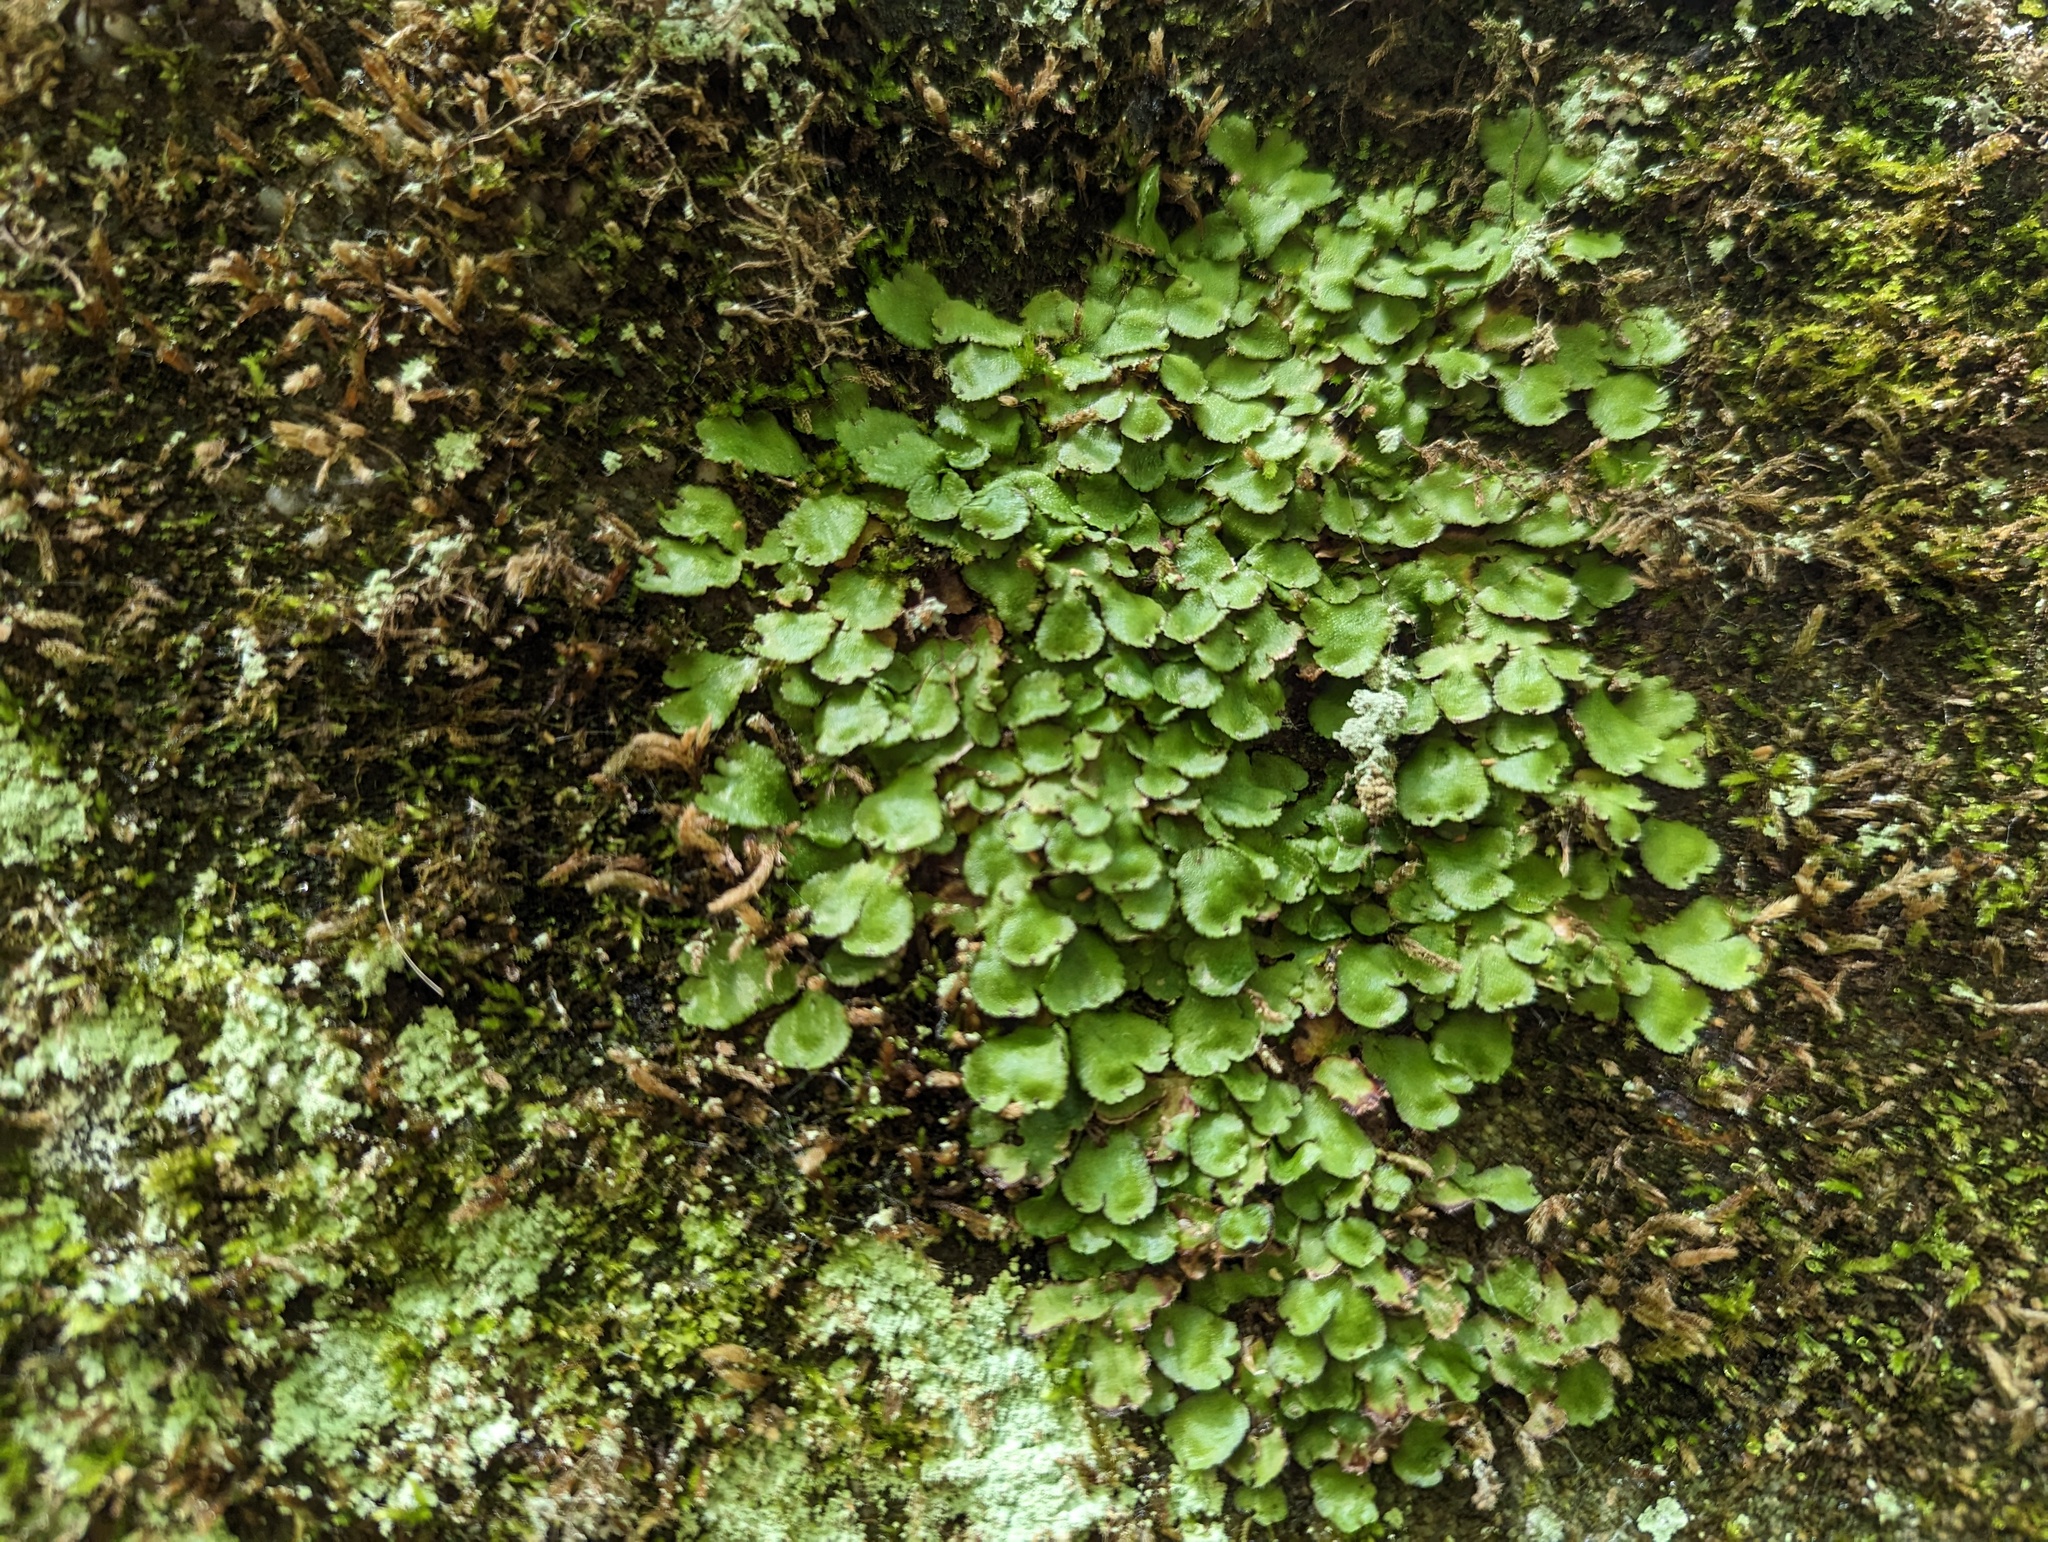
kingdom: Plantae
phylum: Marchantiophyta
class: Marchantiopsida
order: Marchantiales
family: Aytoniaceae
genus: Reboulia
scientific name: Reboulia hemisphaerica
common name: Purple-margined liverwort
